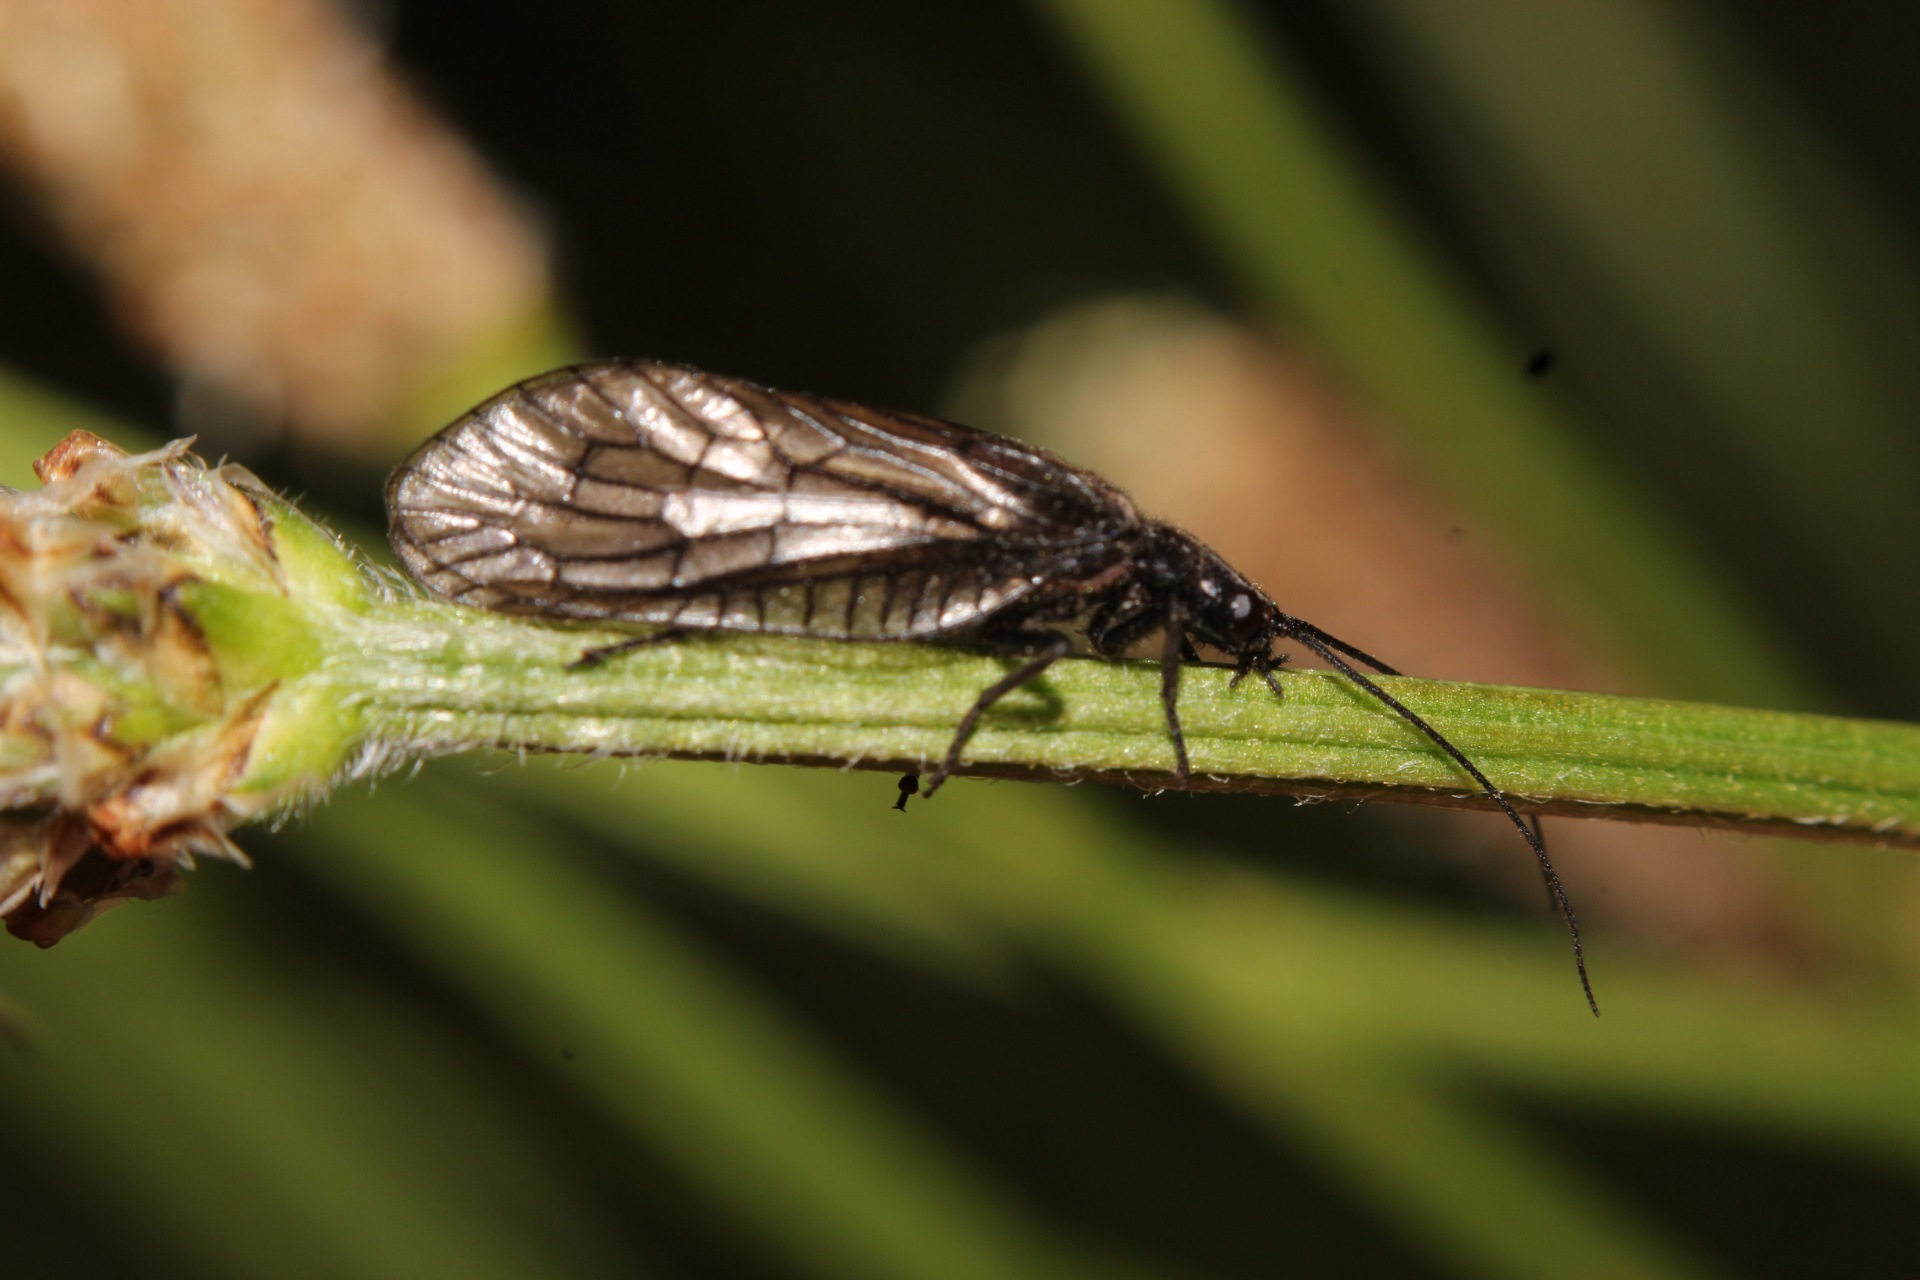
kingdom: Animalia
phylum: Arthropoda
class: Insecta
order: Megaloptera
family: Sialidae
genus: Sialis
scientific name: Sialis
